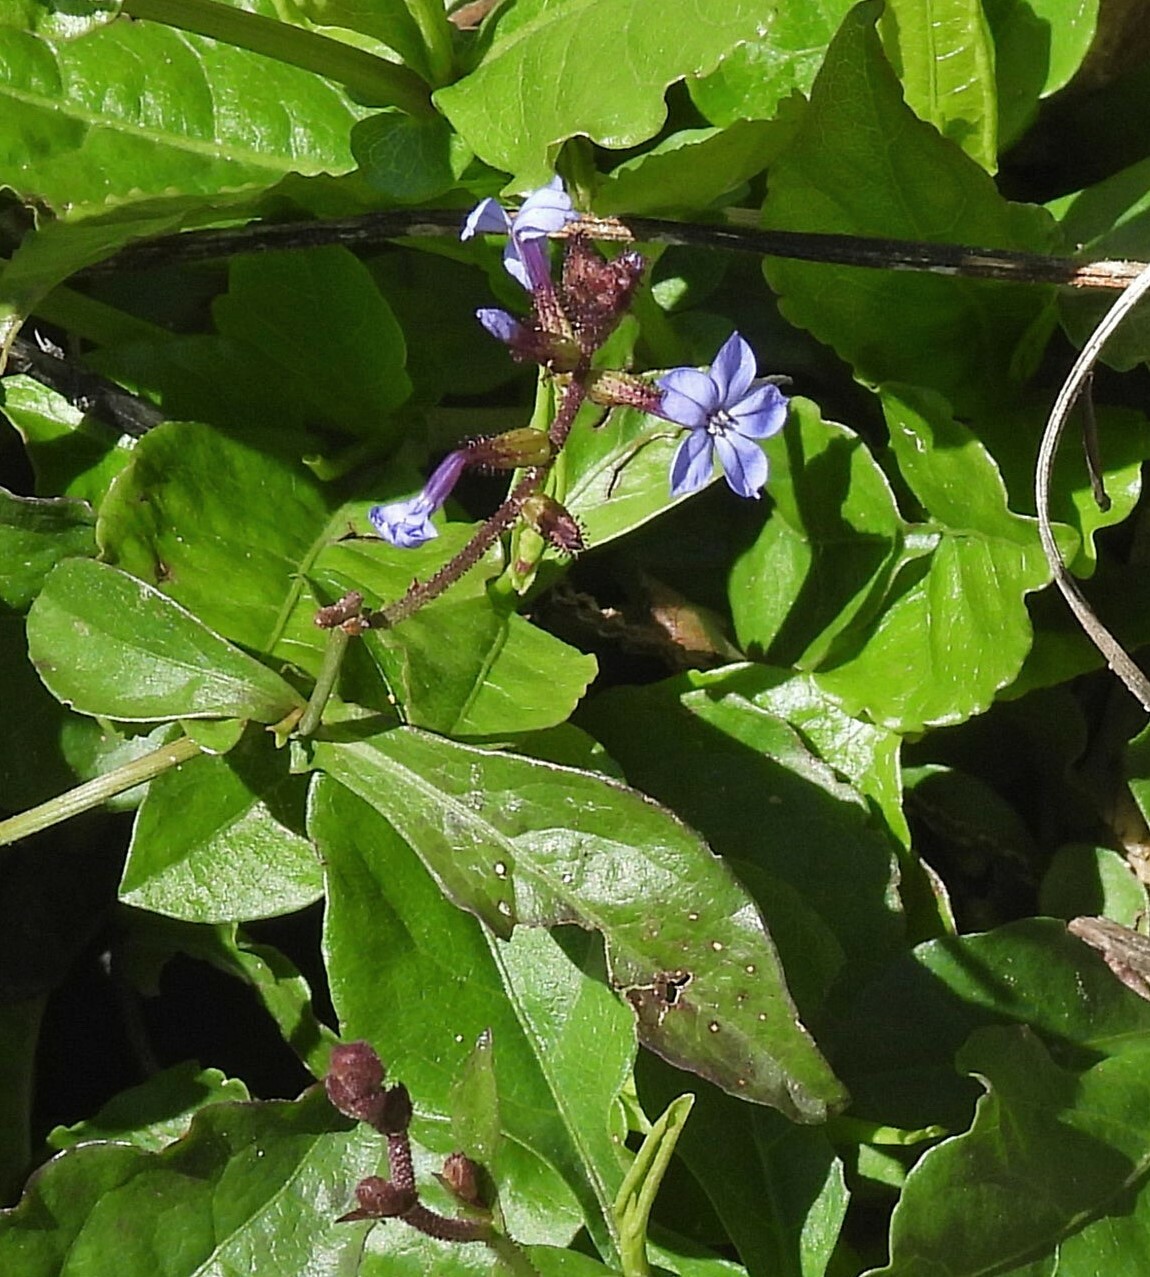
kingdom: Plantae
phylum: Tracheophyta
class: Magnoliopsida
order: Caryophyllales
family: Plumbaginaceae
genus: Plumbago
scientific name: Plumbago caerulea
